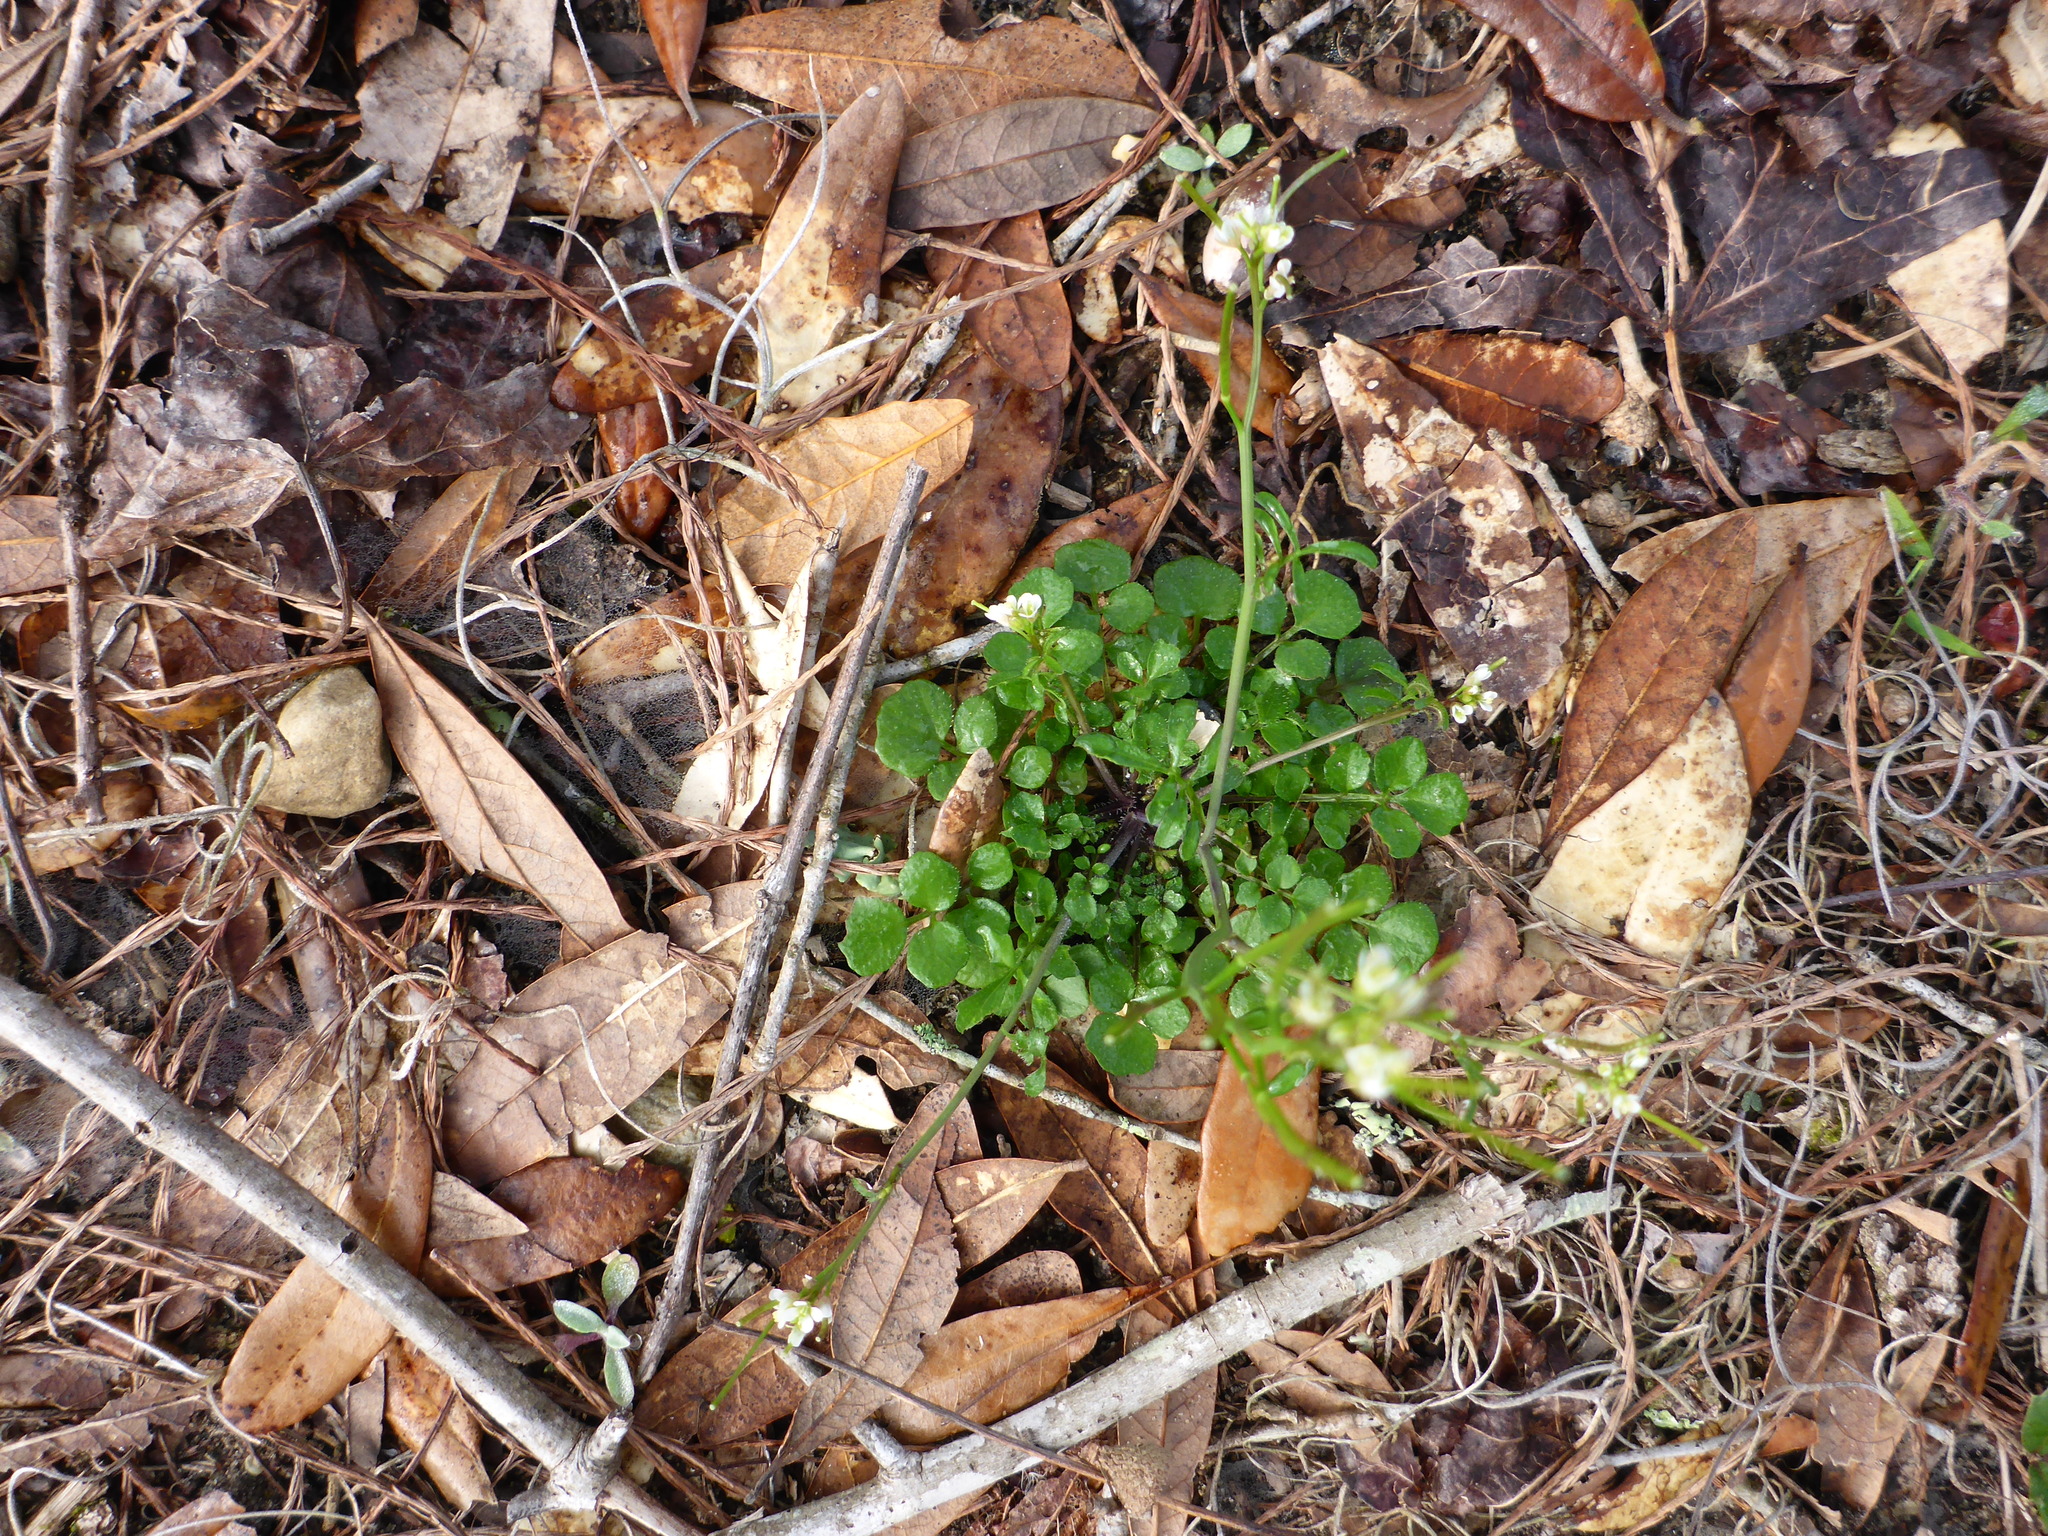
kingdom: Plantae
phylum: Tracheophyta
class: Magnoliopsida
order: Brassicales
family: Brassicaceae
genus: Cardamine
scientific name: Cardamine hirsuta
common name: Hairy bittercress
